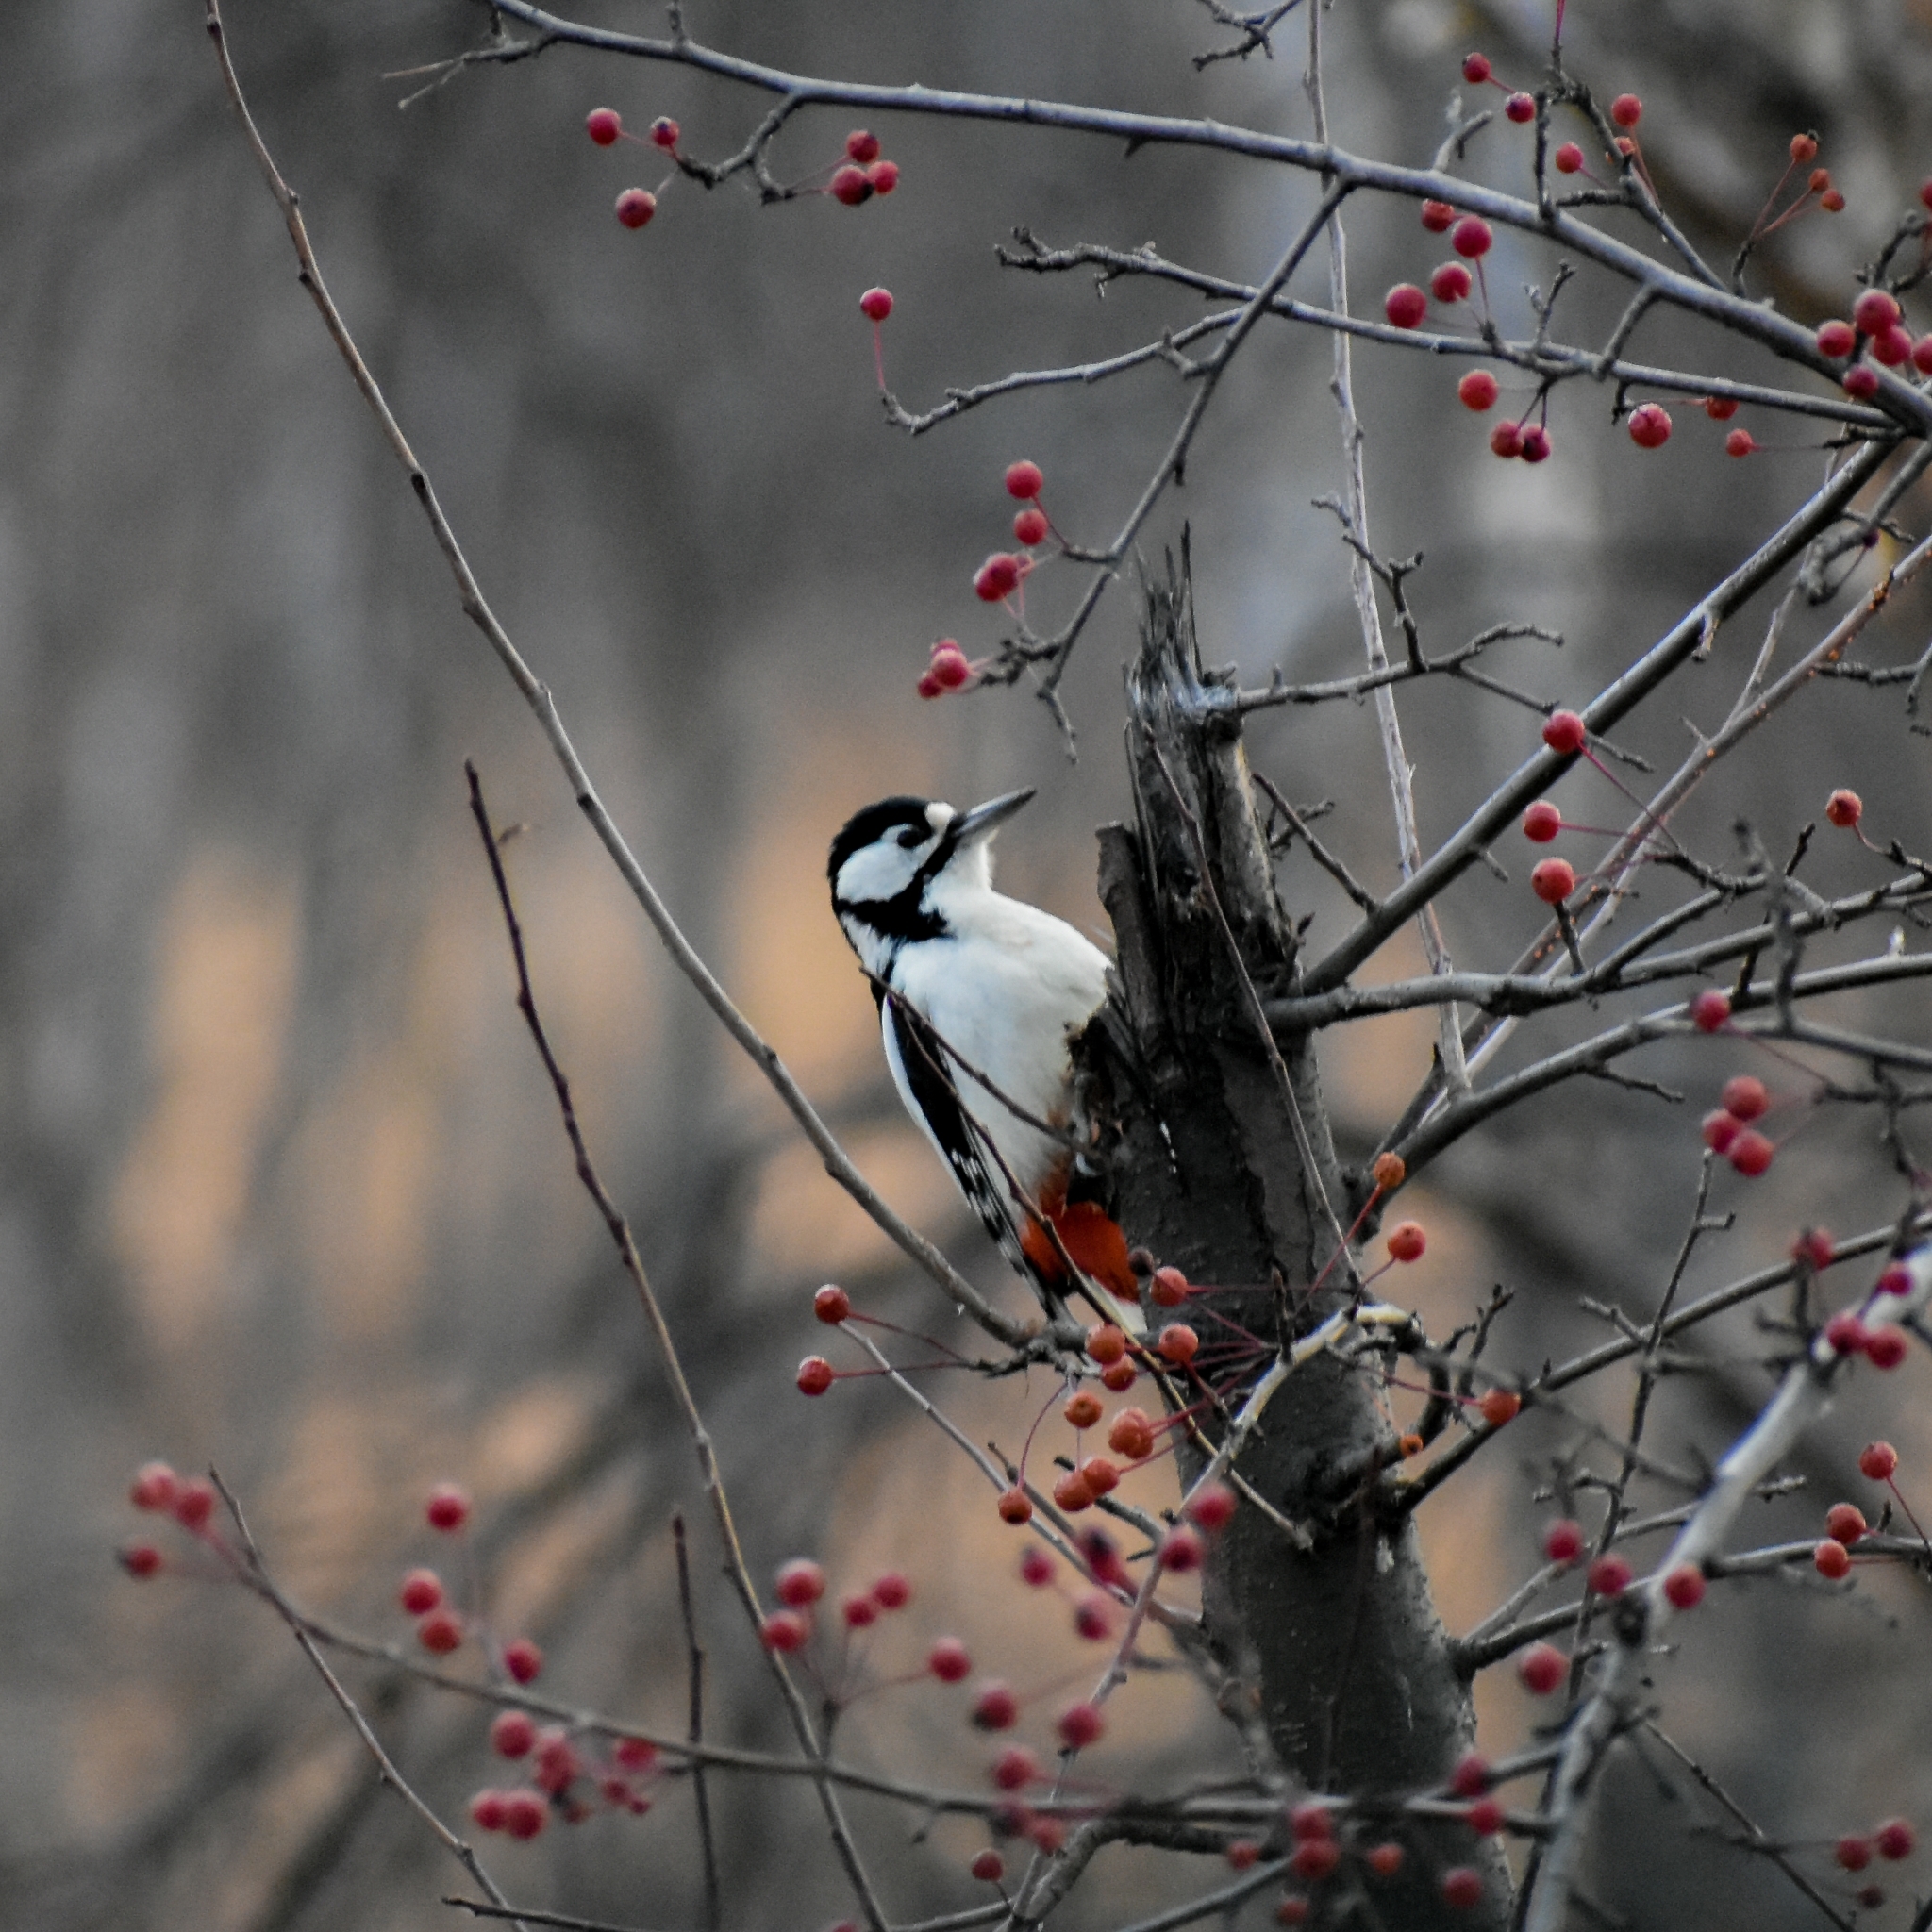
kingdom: Animalia
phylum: Chordata
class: Aves
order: Piciformes
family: Picidae
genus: Dendrocopos
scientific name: Dendrocopos major
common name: Great spotted woodpecker
